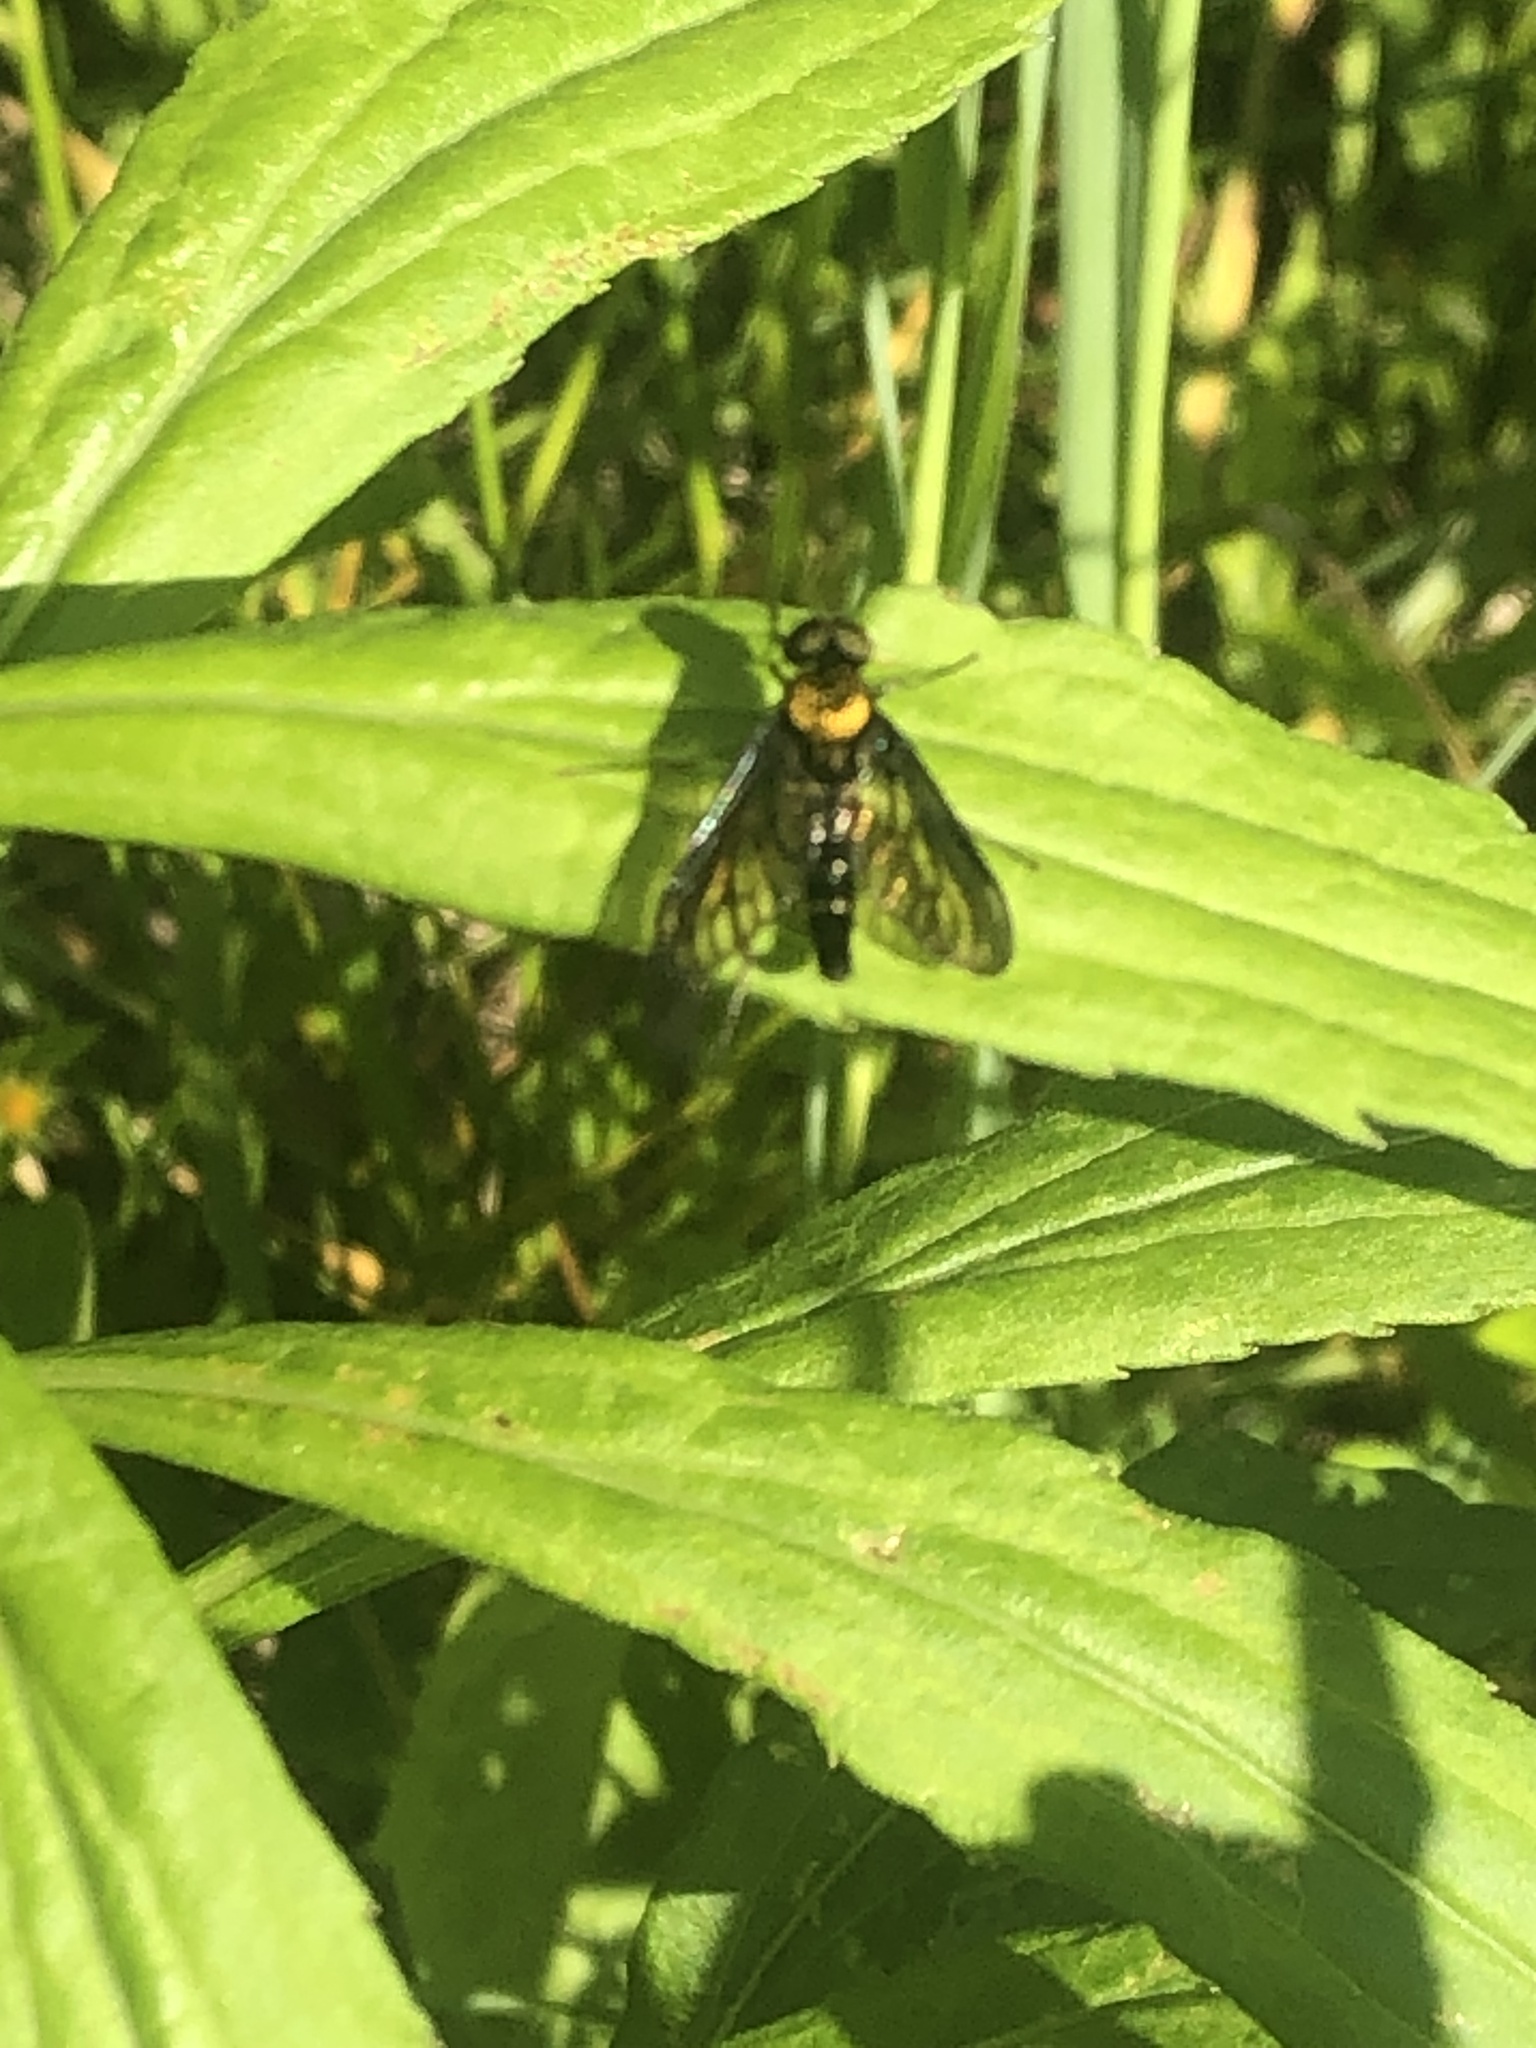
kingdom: Animalia
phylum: Arthropoda
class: Insecta
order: Diptera
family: Rhagionidae
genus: Chrysopilus
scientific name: Chrysopilus thoracicus
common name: Golden-backed snipe fly
